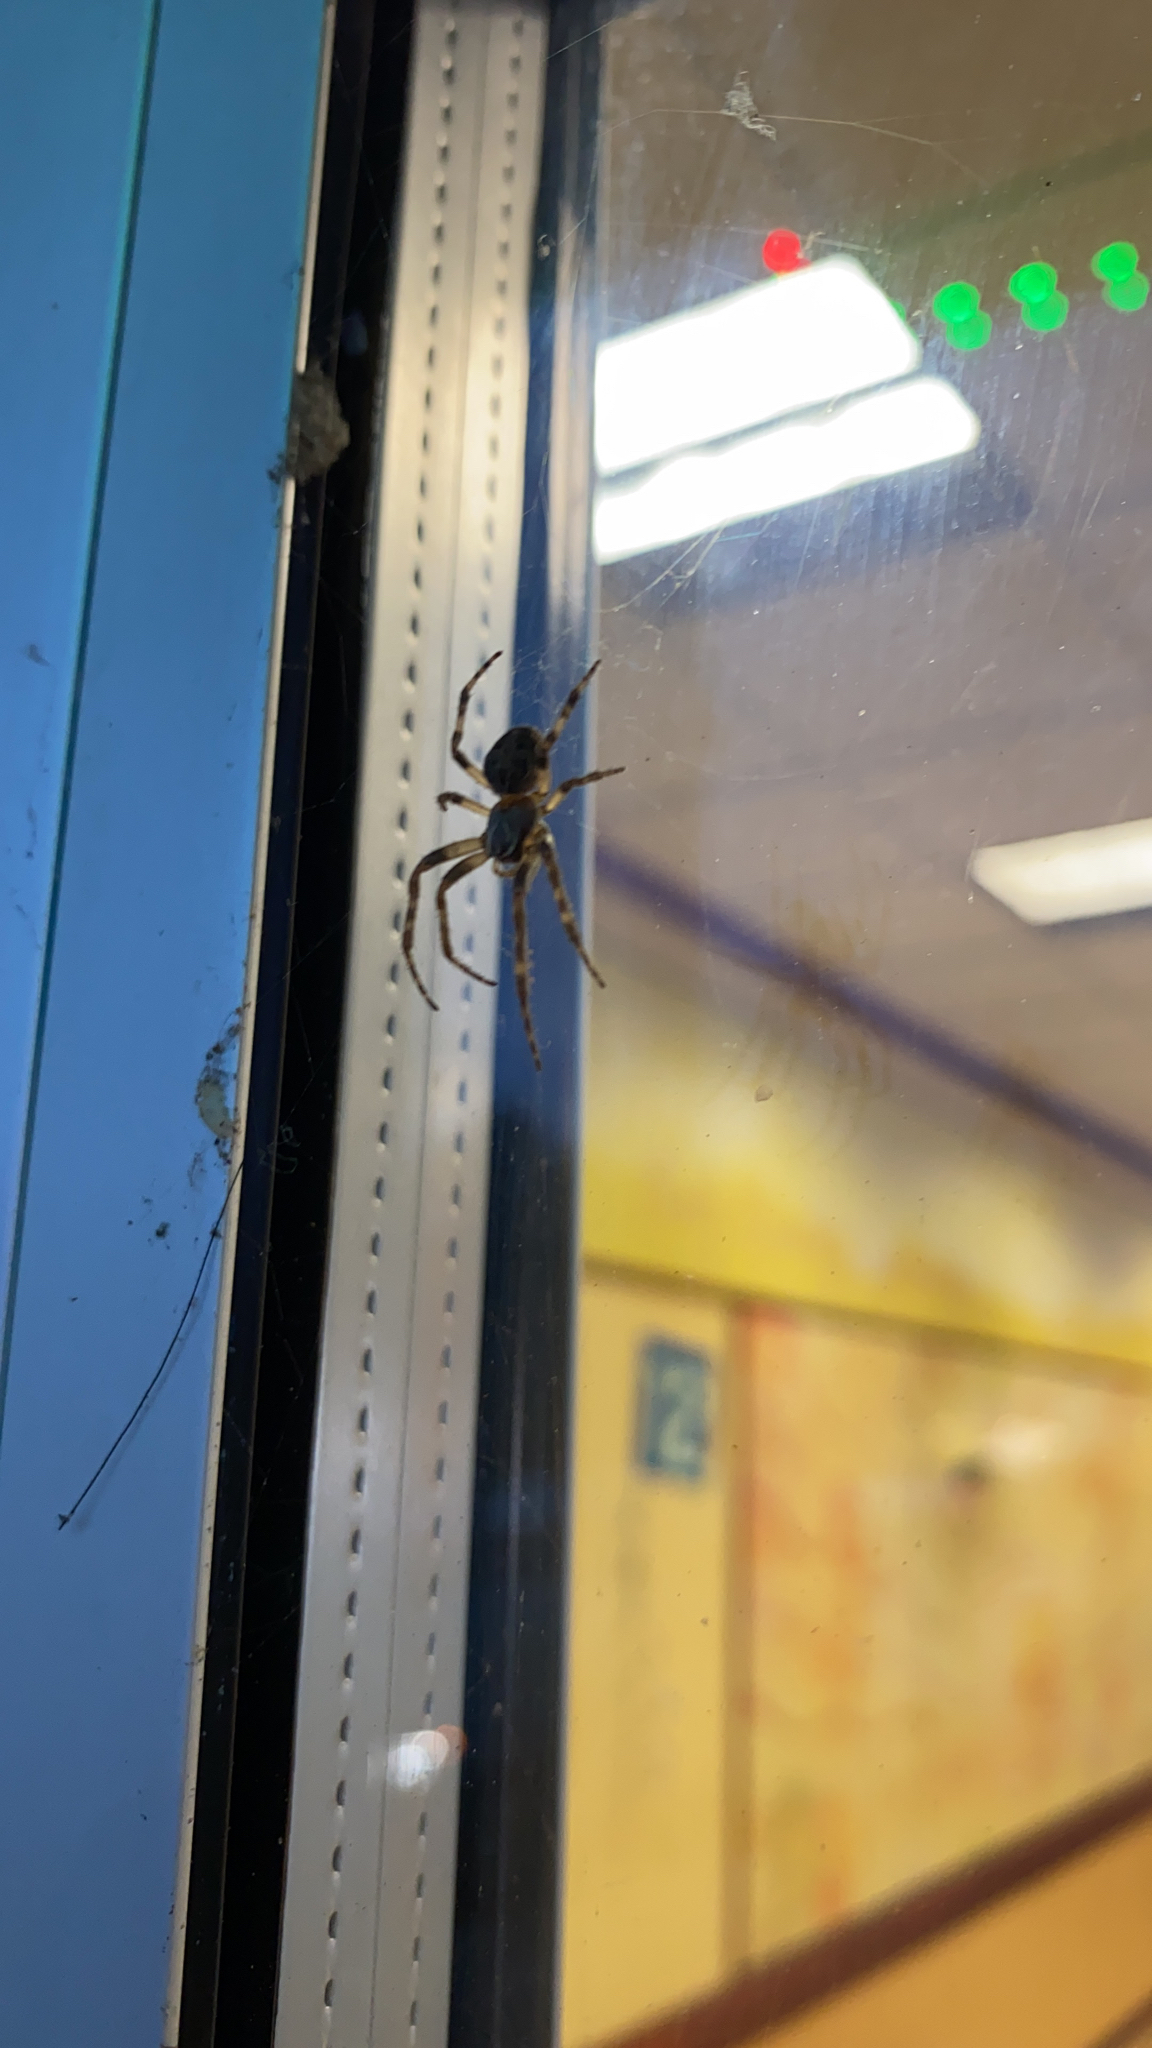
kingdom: Animalia
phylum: Arthropoda
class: Arachnida
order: Araneae
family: Araneidae
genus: Larinioides
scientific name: Larinioides sclopetarius
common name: Bridge orbweaver
